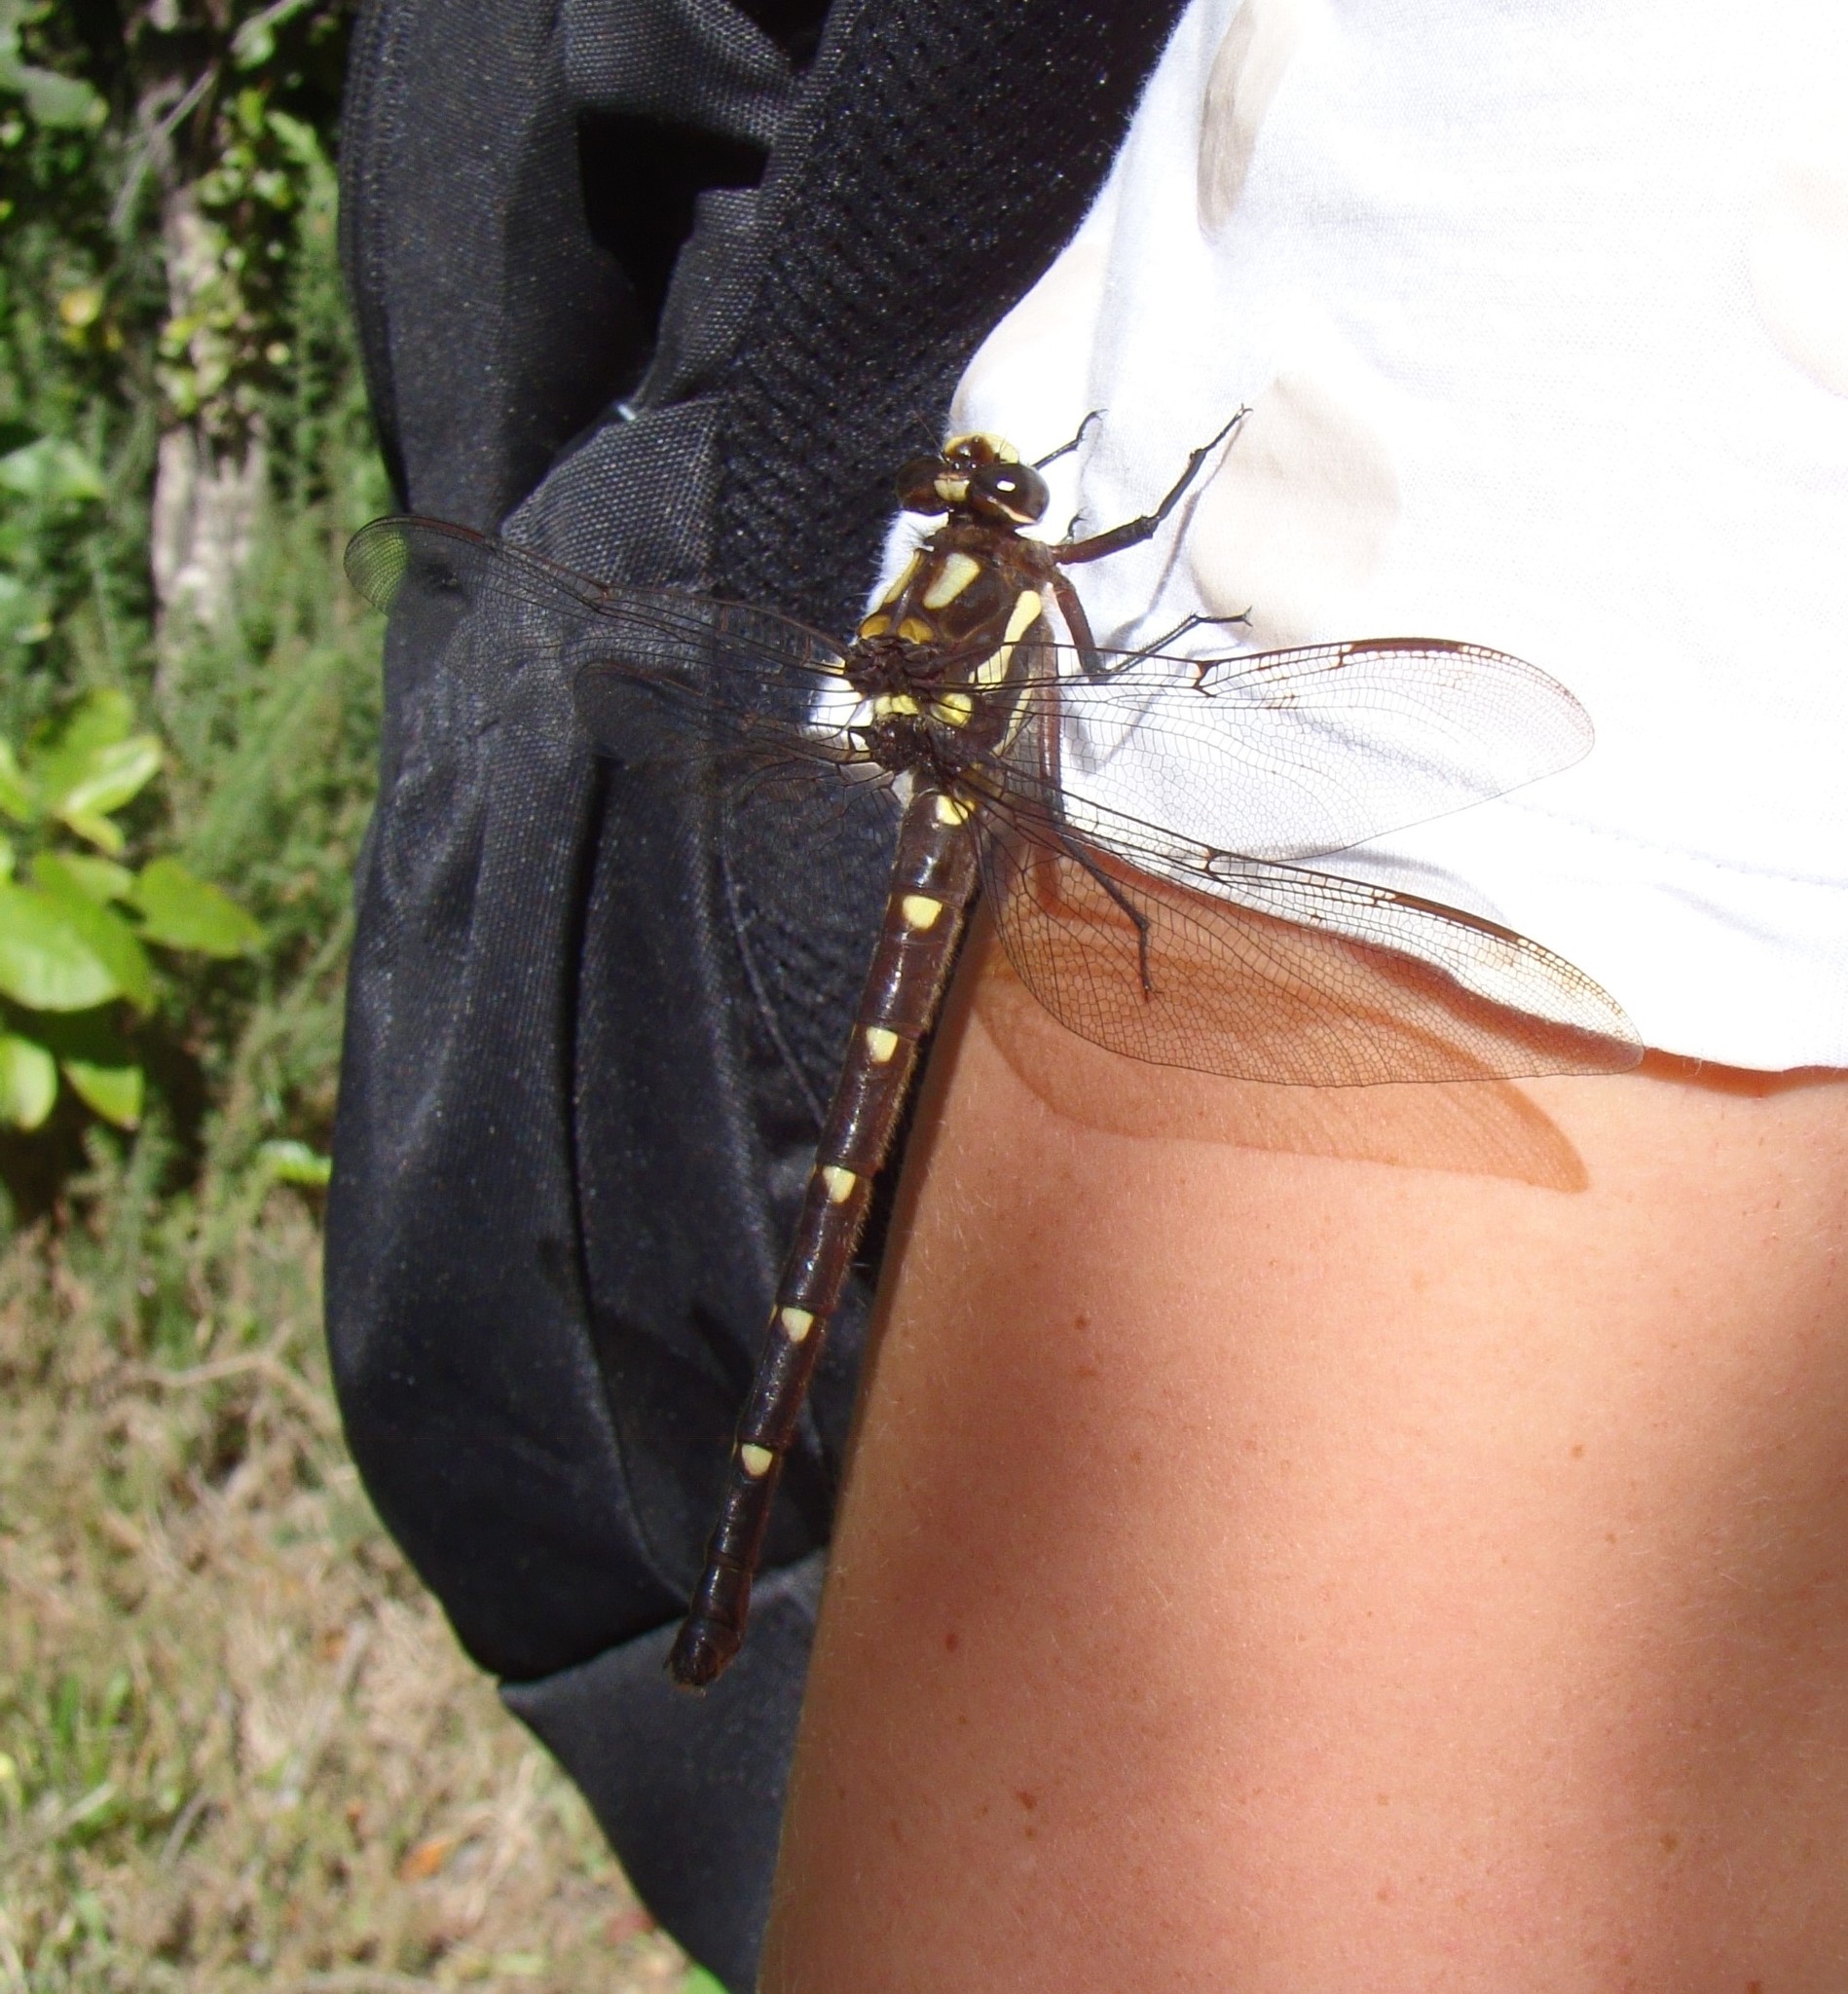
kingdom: Animalia
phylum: Arthropoda
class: Insecta
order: Odonata
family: Petaluridae
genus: Uropetala
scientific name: Uropetala carovei
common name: Bush giant dragonfly
